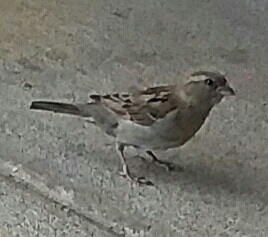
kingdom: Animalia
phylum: Chordata
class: Aves
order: Passeriformes
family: Passeridae
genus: Passer
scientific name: Passer domesticus
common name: House sparrow
